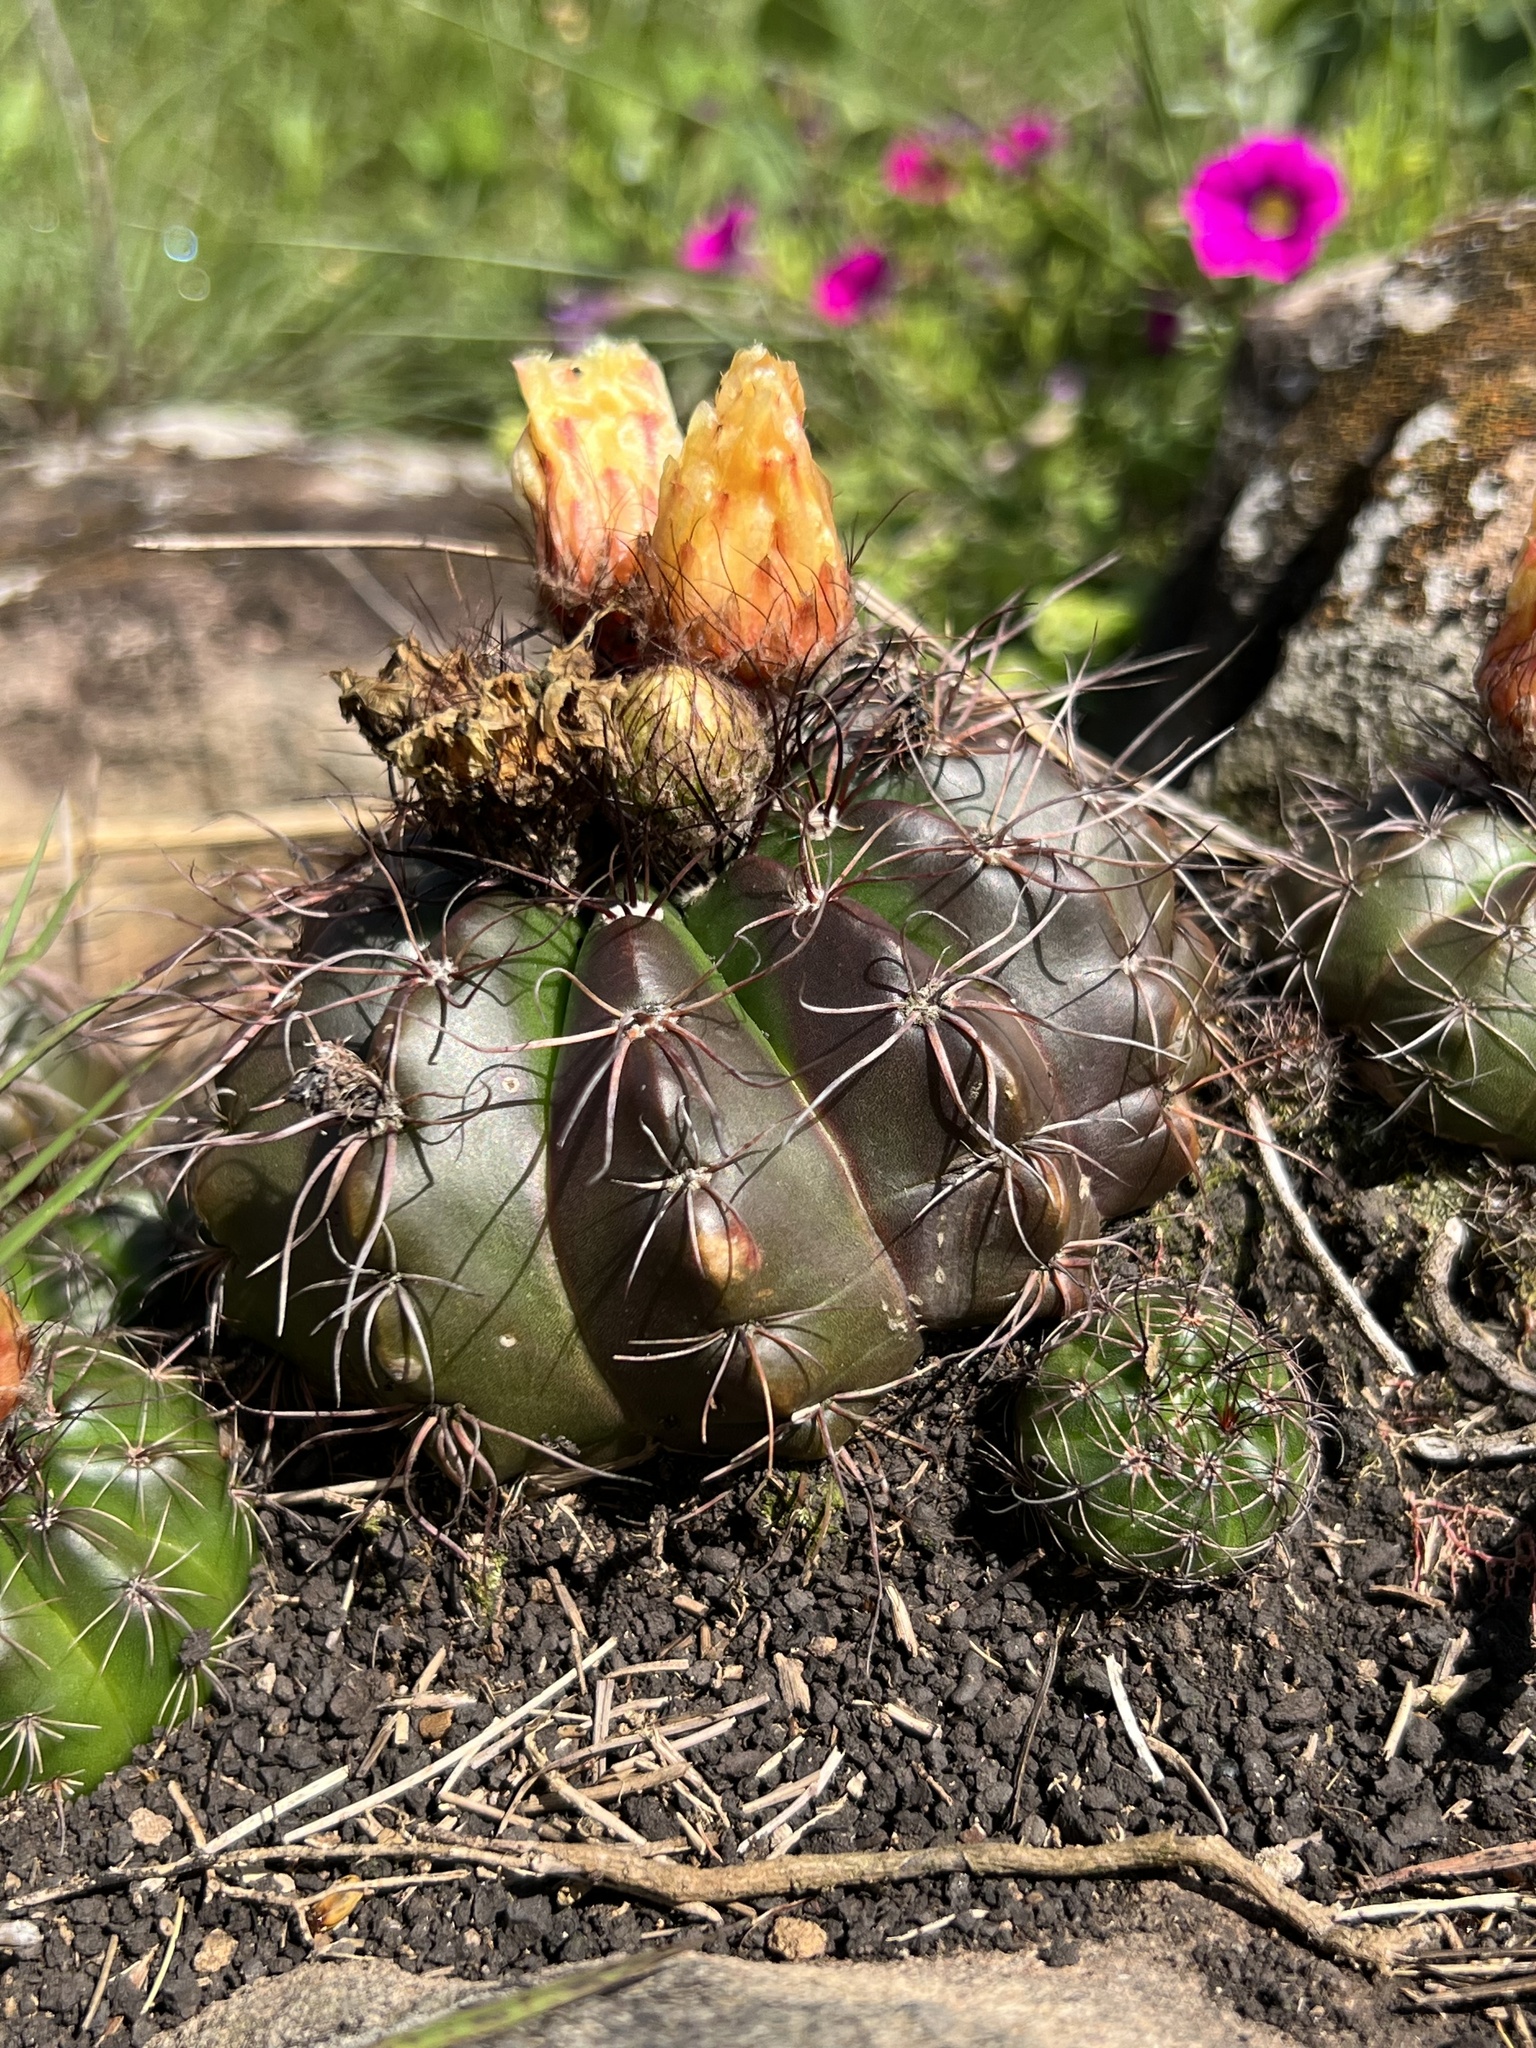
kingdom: Plantae
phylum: Tracheophyta
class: Magnoliopsida
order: Caryophyllales
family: Cactaceae
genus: Parodia
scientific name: Parodia linkii
